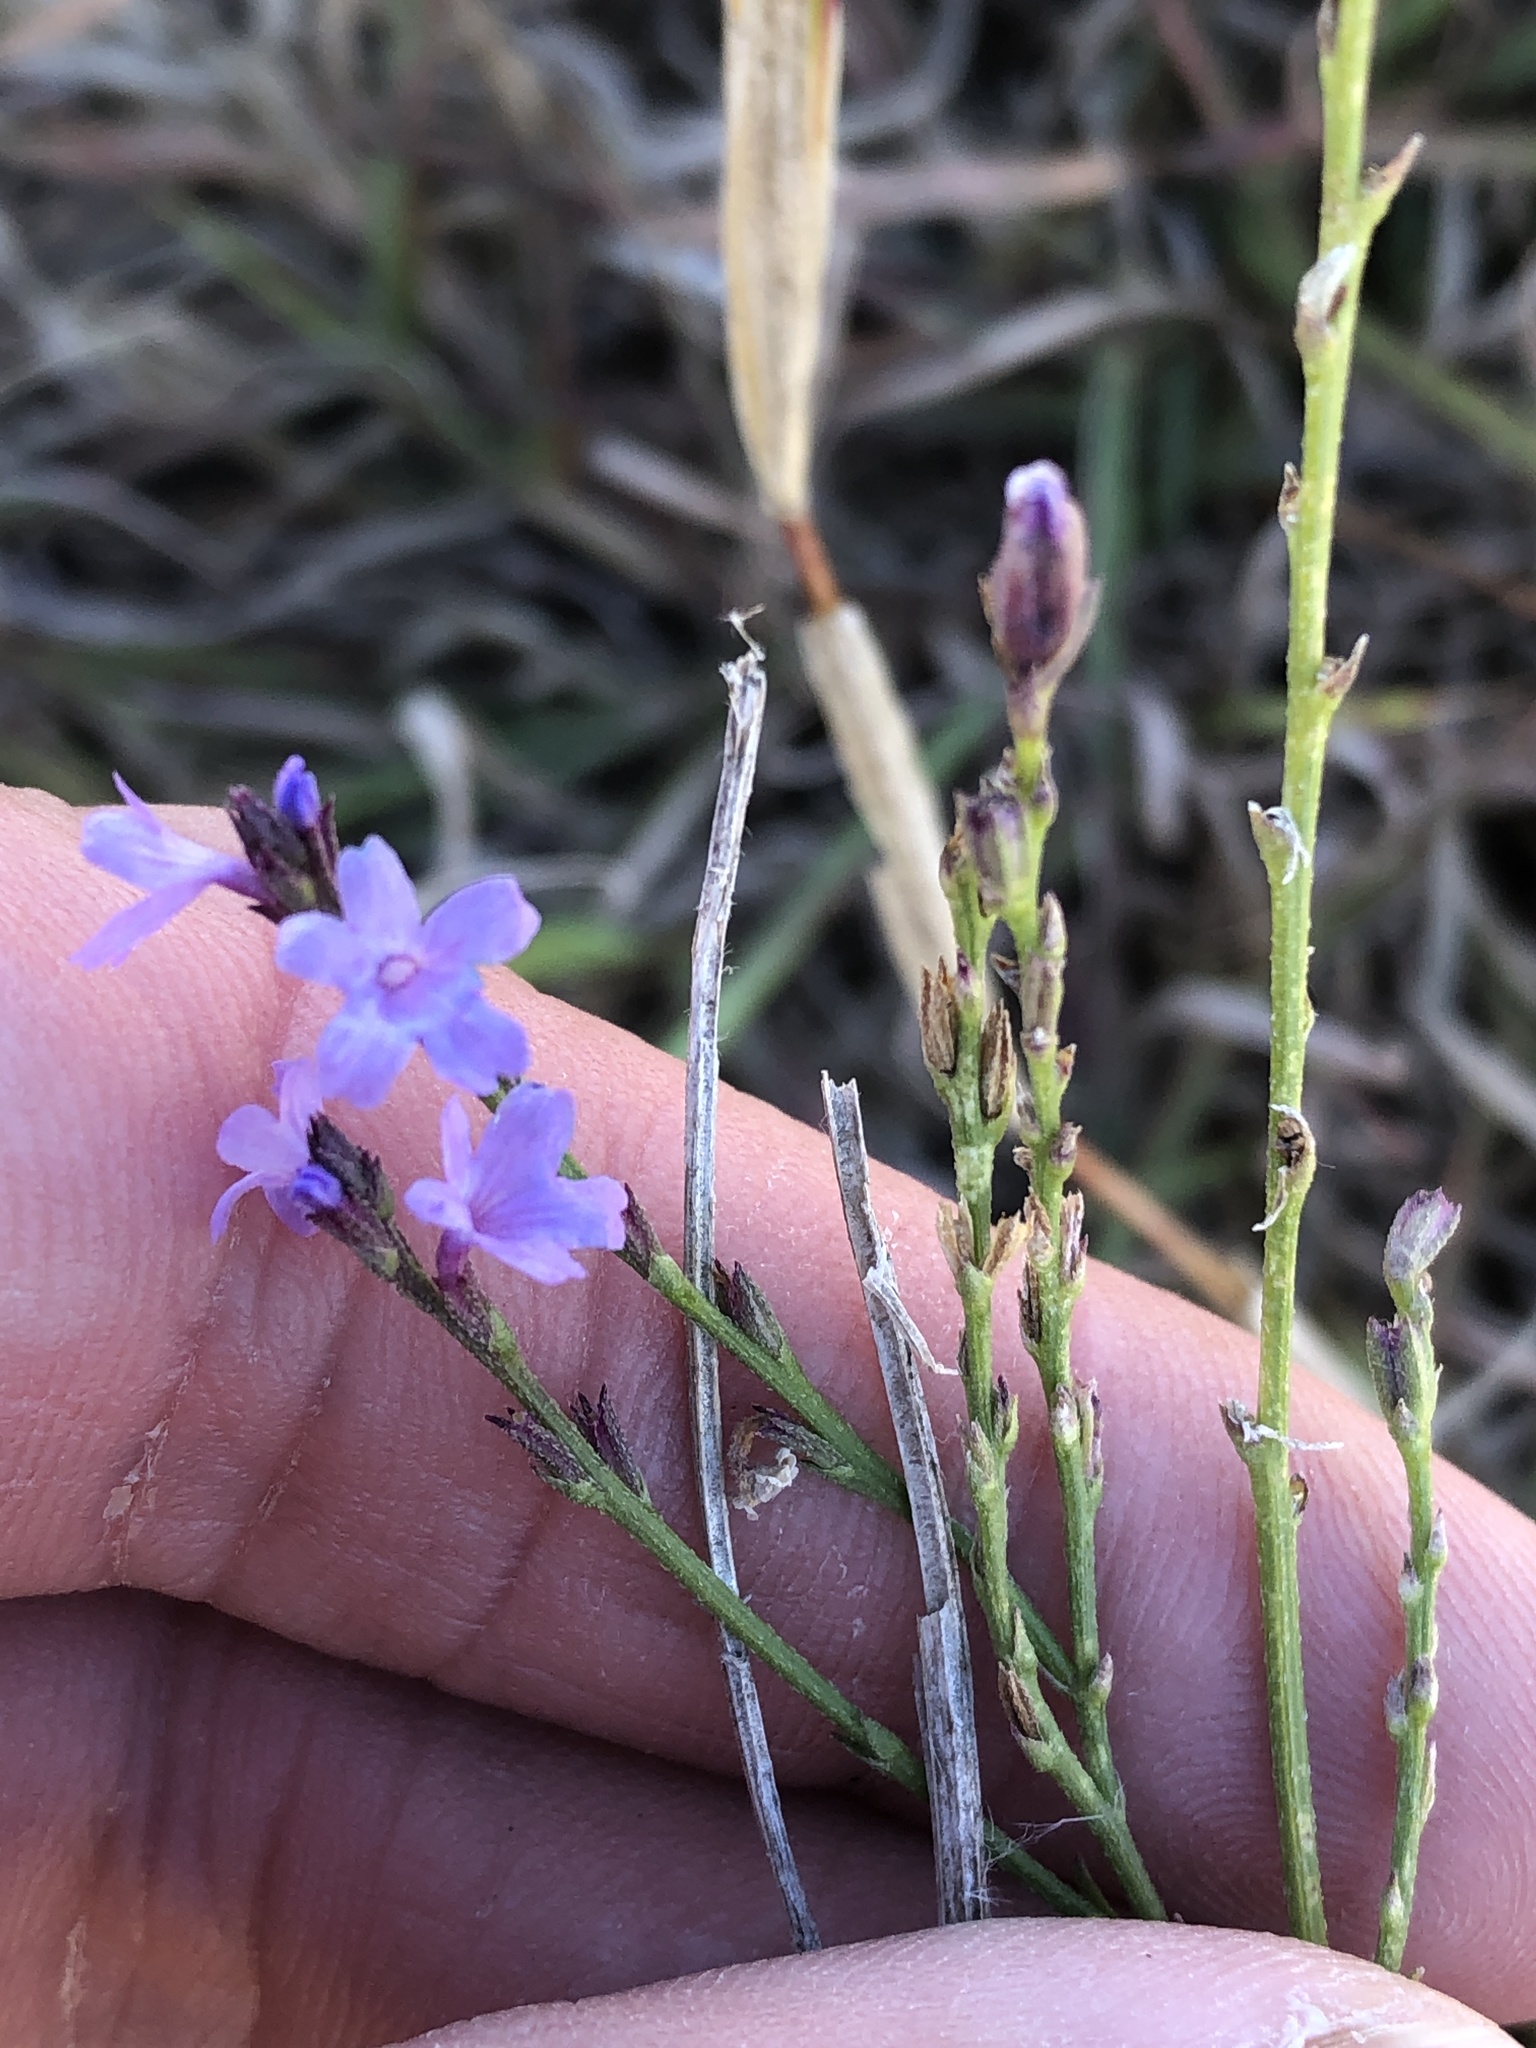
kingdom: Plantae
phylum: Tracheophyta
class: Magnoliopsida
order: Lamiales
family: Verbenaceae
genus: Verbena
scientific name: Verbena halei
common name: Texas vervain
